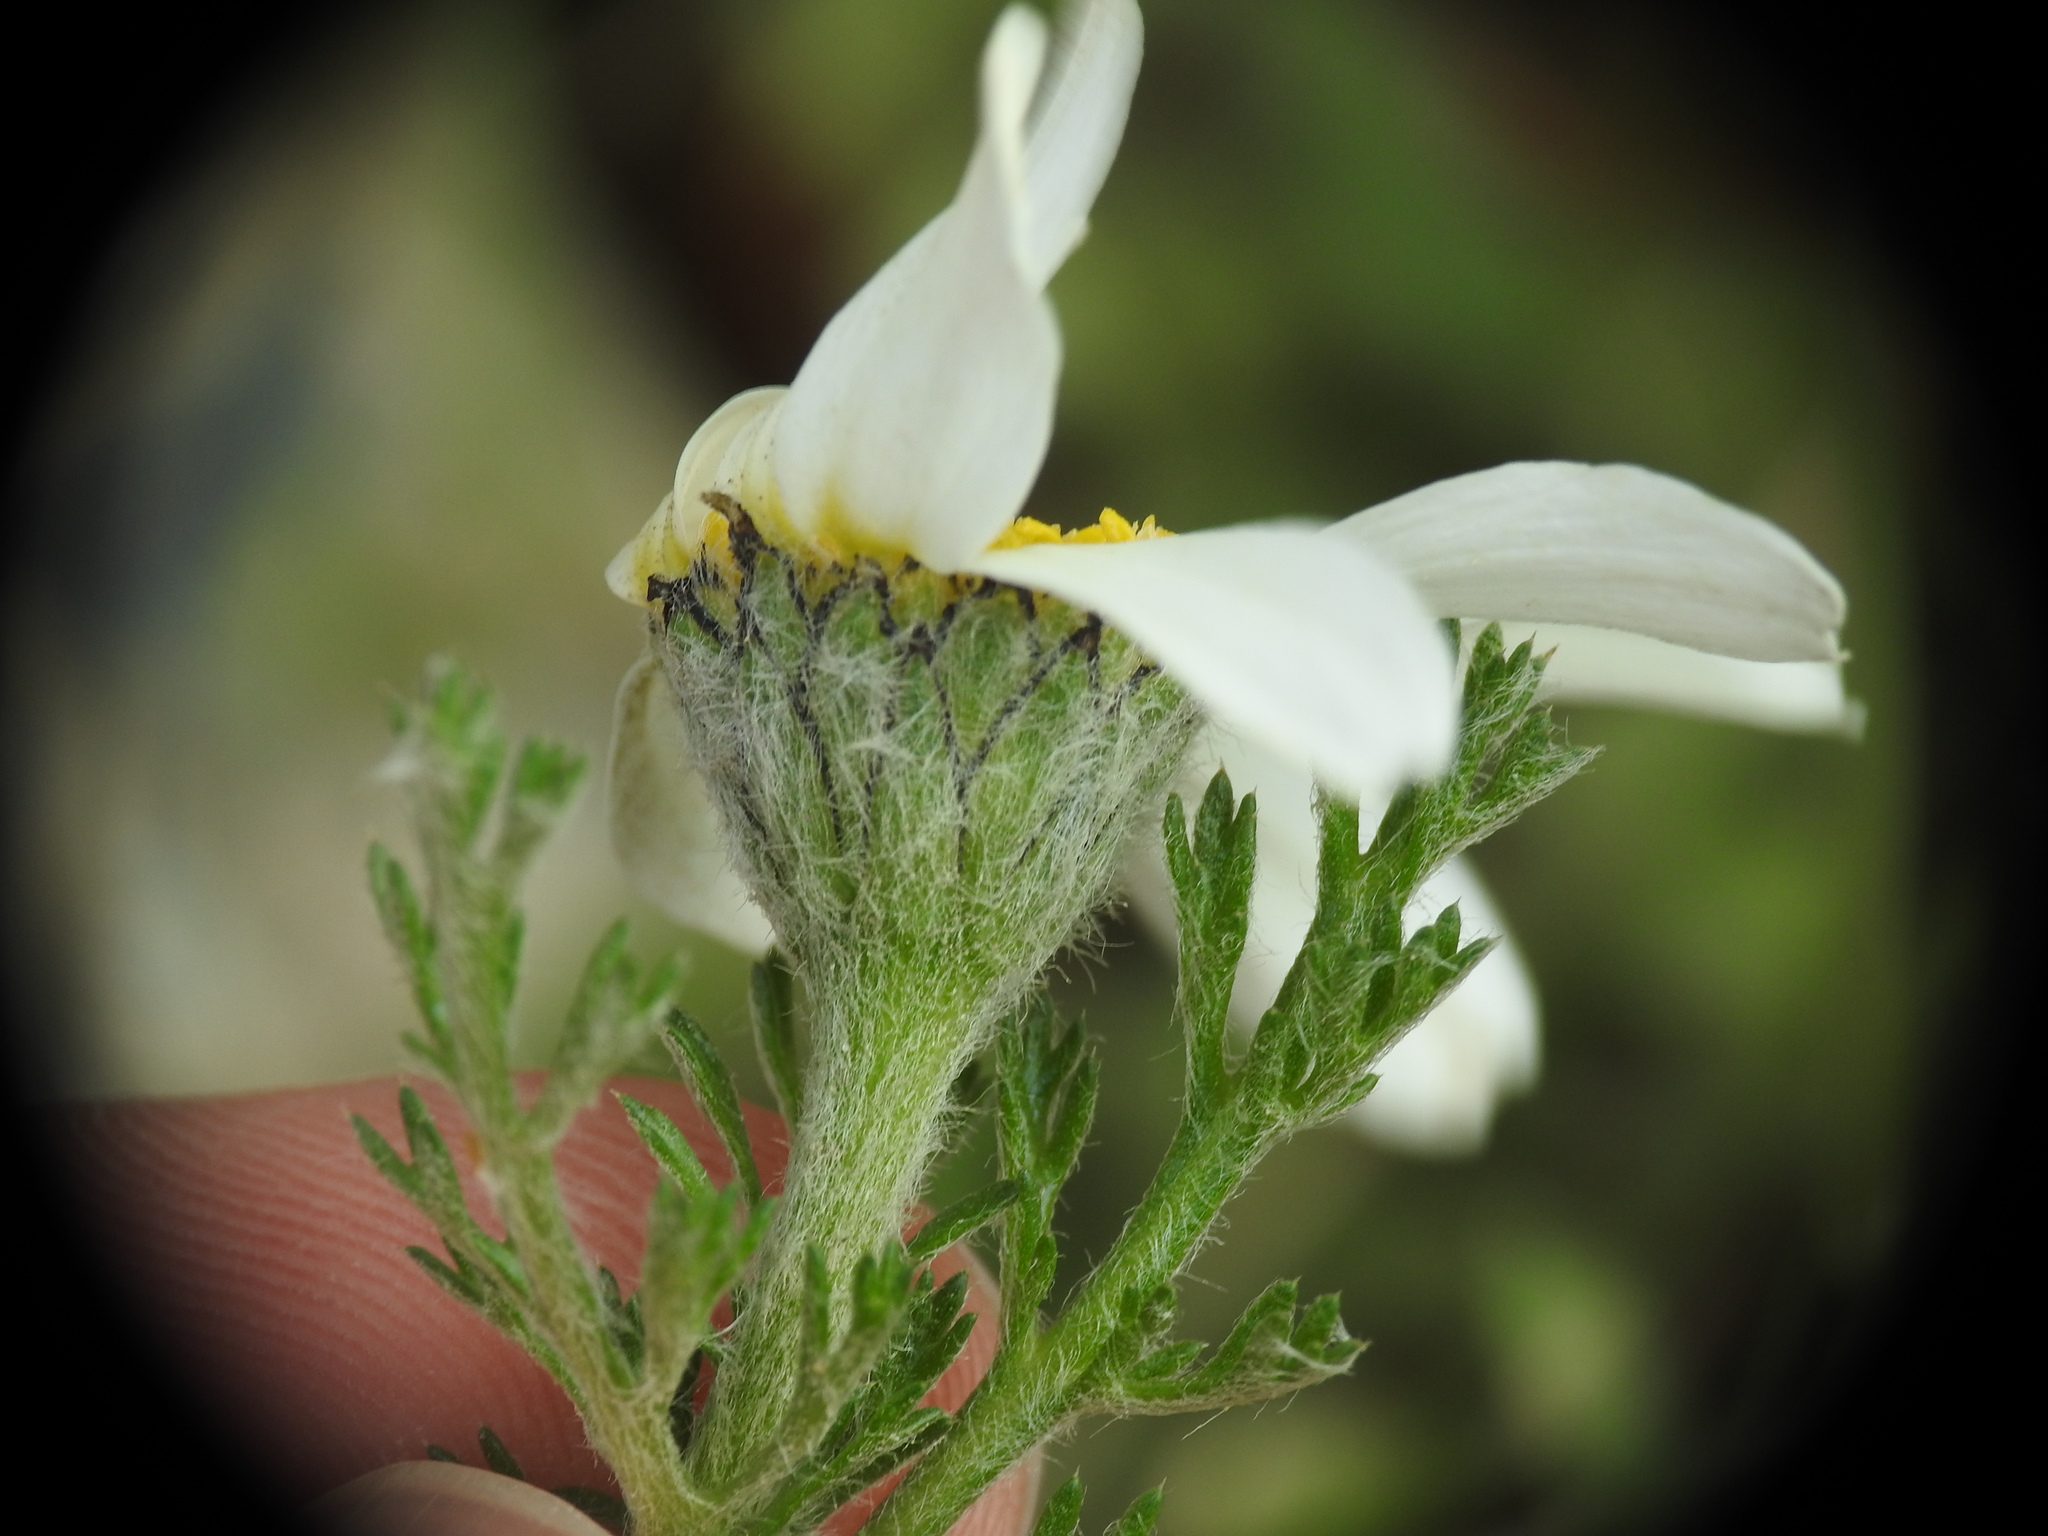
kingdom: Plantae
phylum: Tracheophyta
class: Magnoliopsida
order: Asterales
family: Asteraceae
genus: Anacyclus
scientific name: Anacyclus clavatus
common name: Whitebuttons
